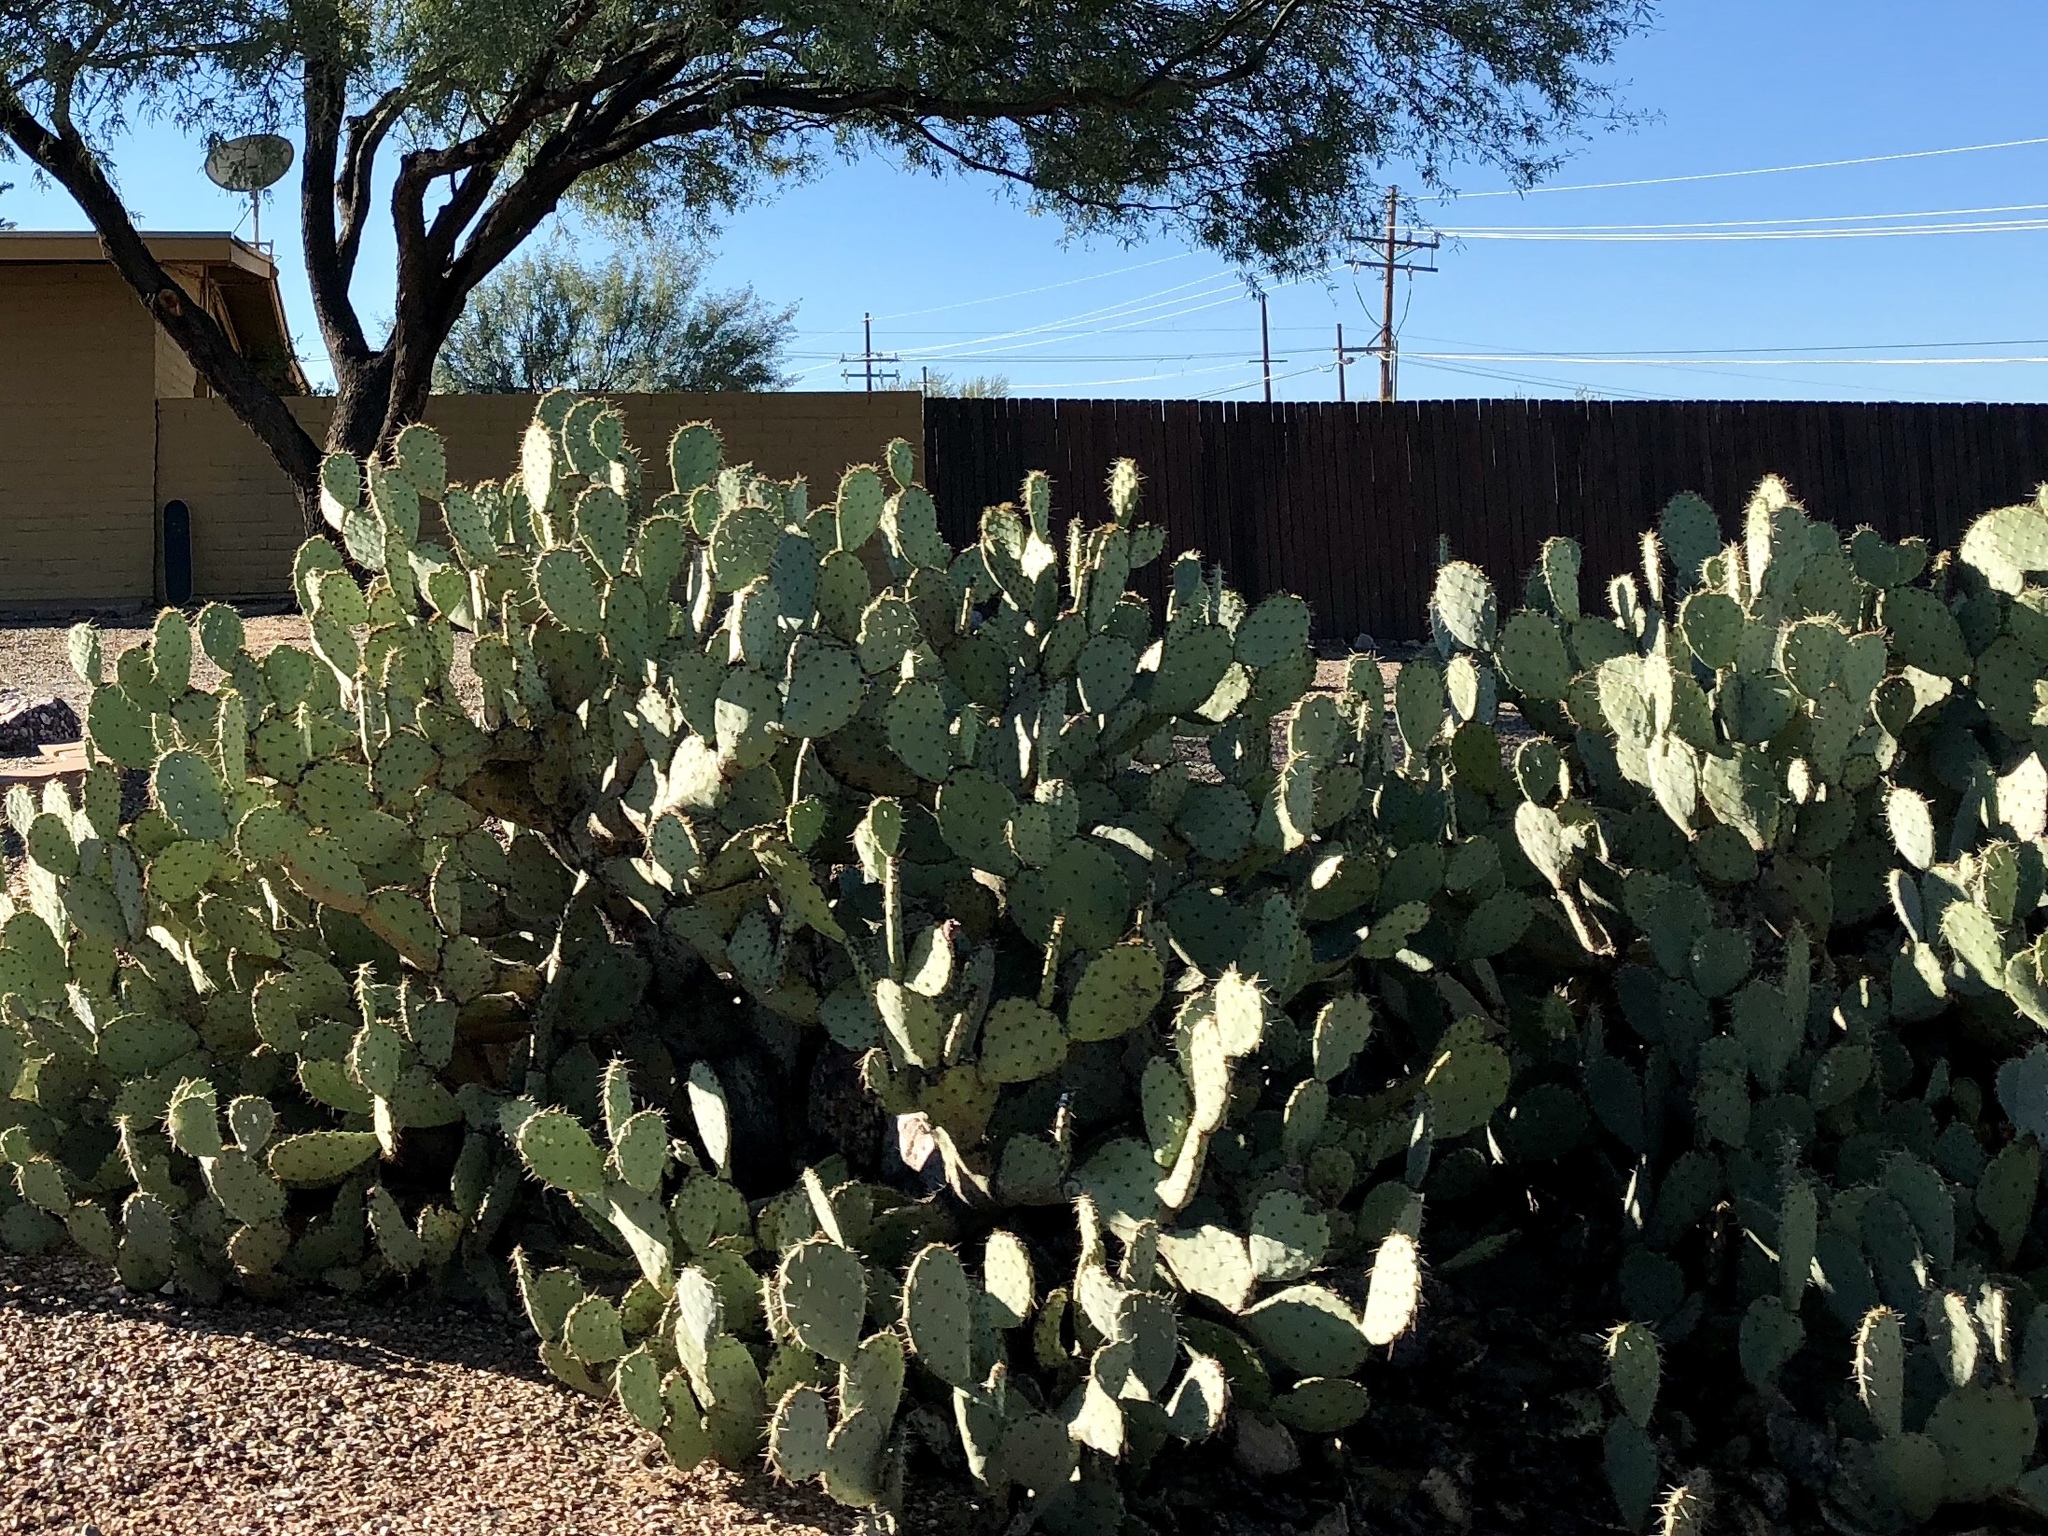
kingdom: Plantae
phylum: Tracheophyta
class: Magnoliopsida
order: Caryophyllales
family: Cactaceae
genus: Opuntia
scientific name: Opuntia engelmannii
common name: Cactus-apple
